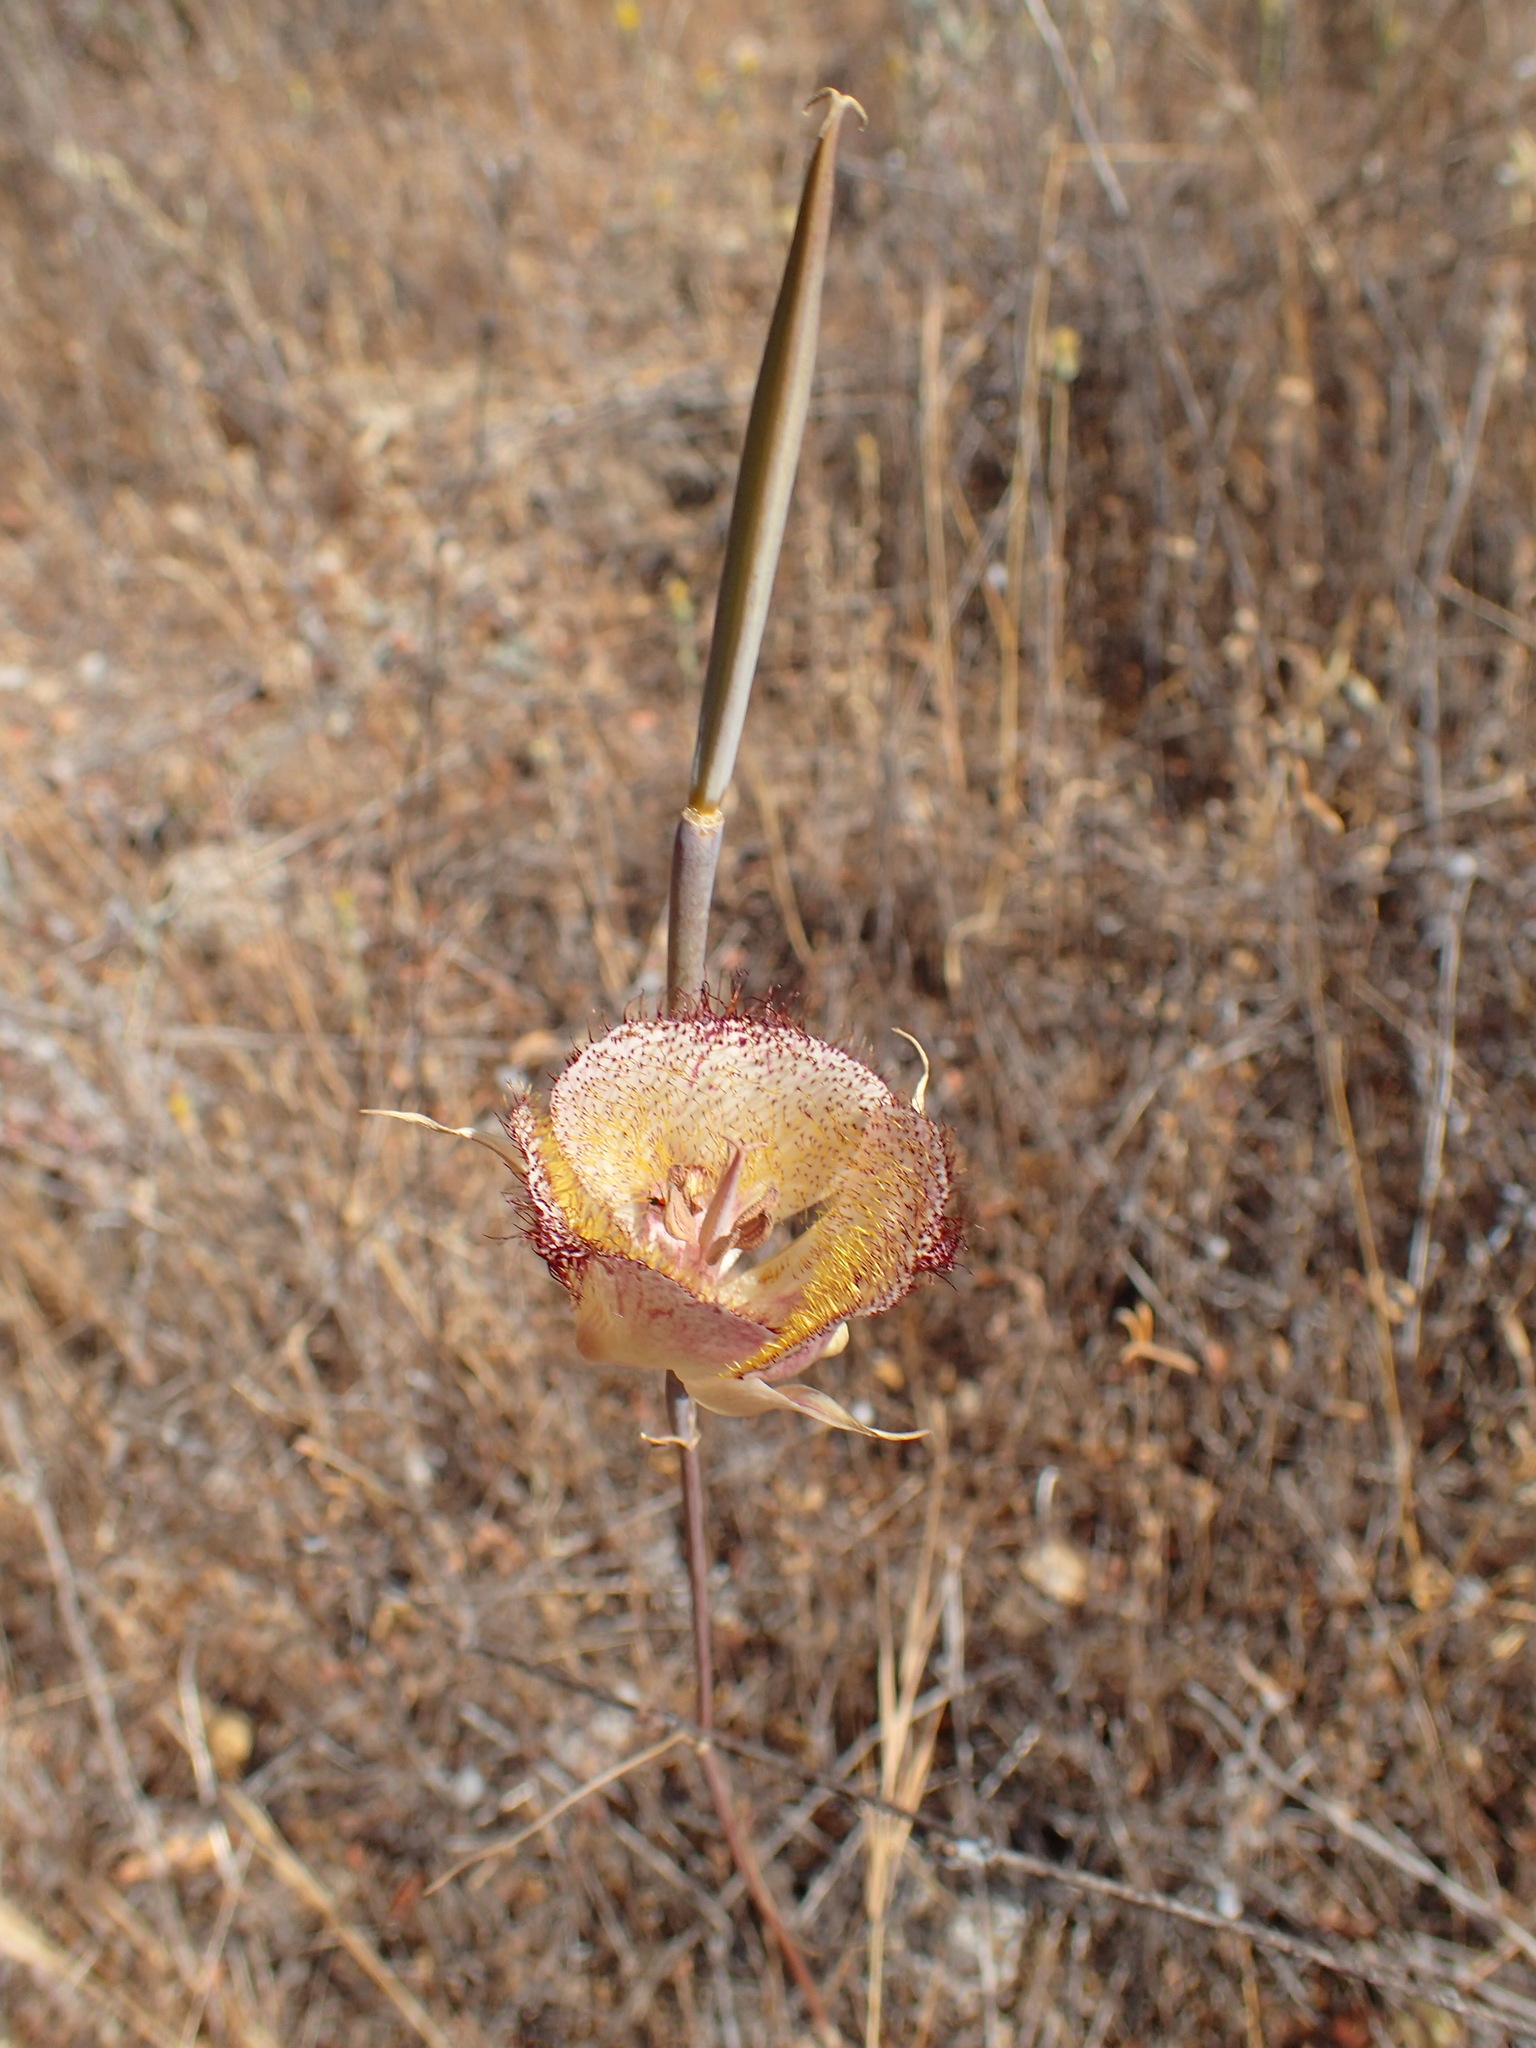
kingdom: Plantae
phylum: Tracheophyta
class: Liliopsida
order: Liliales
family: Liliaceae
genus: Calochortus
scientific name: Calochortus fimbriatus
